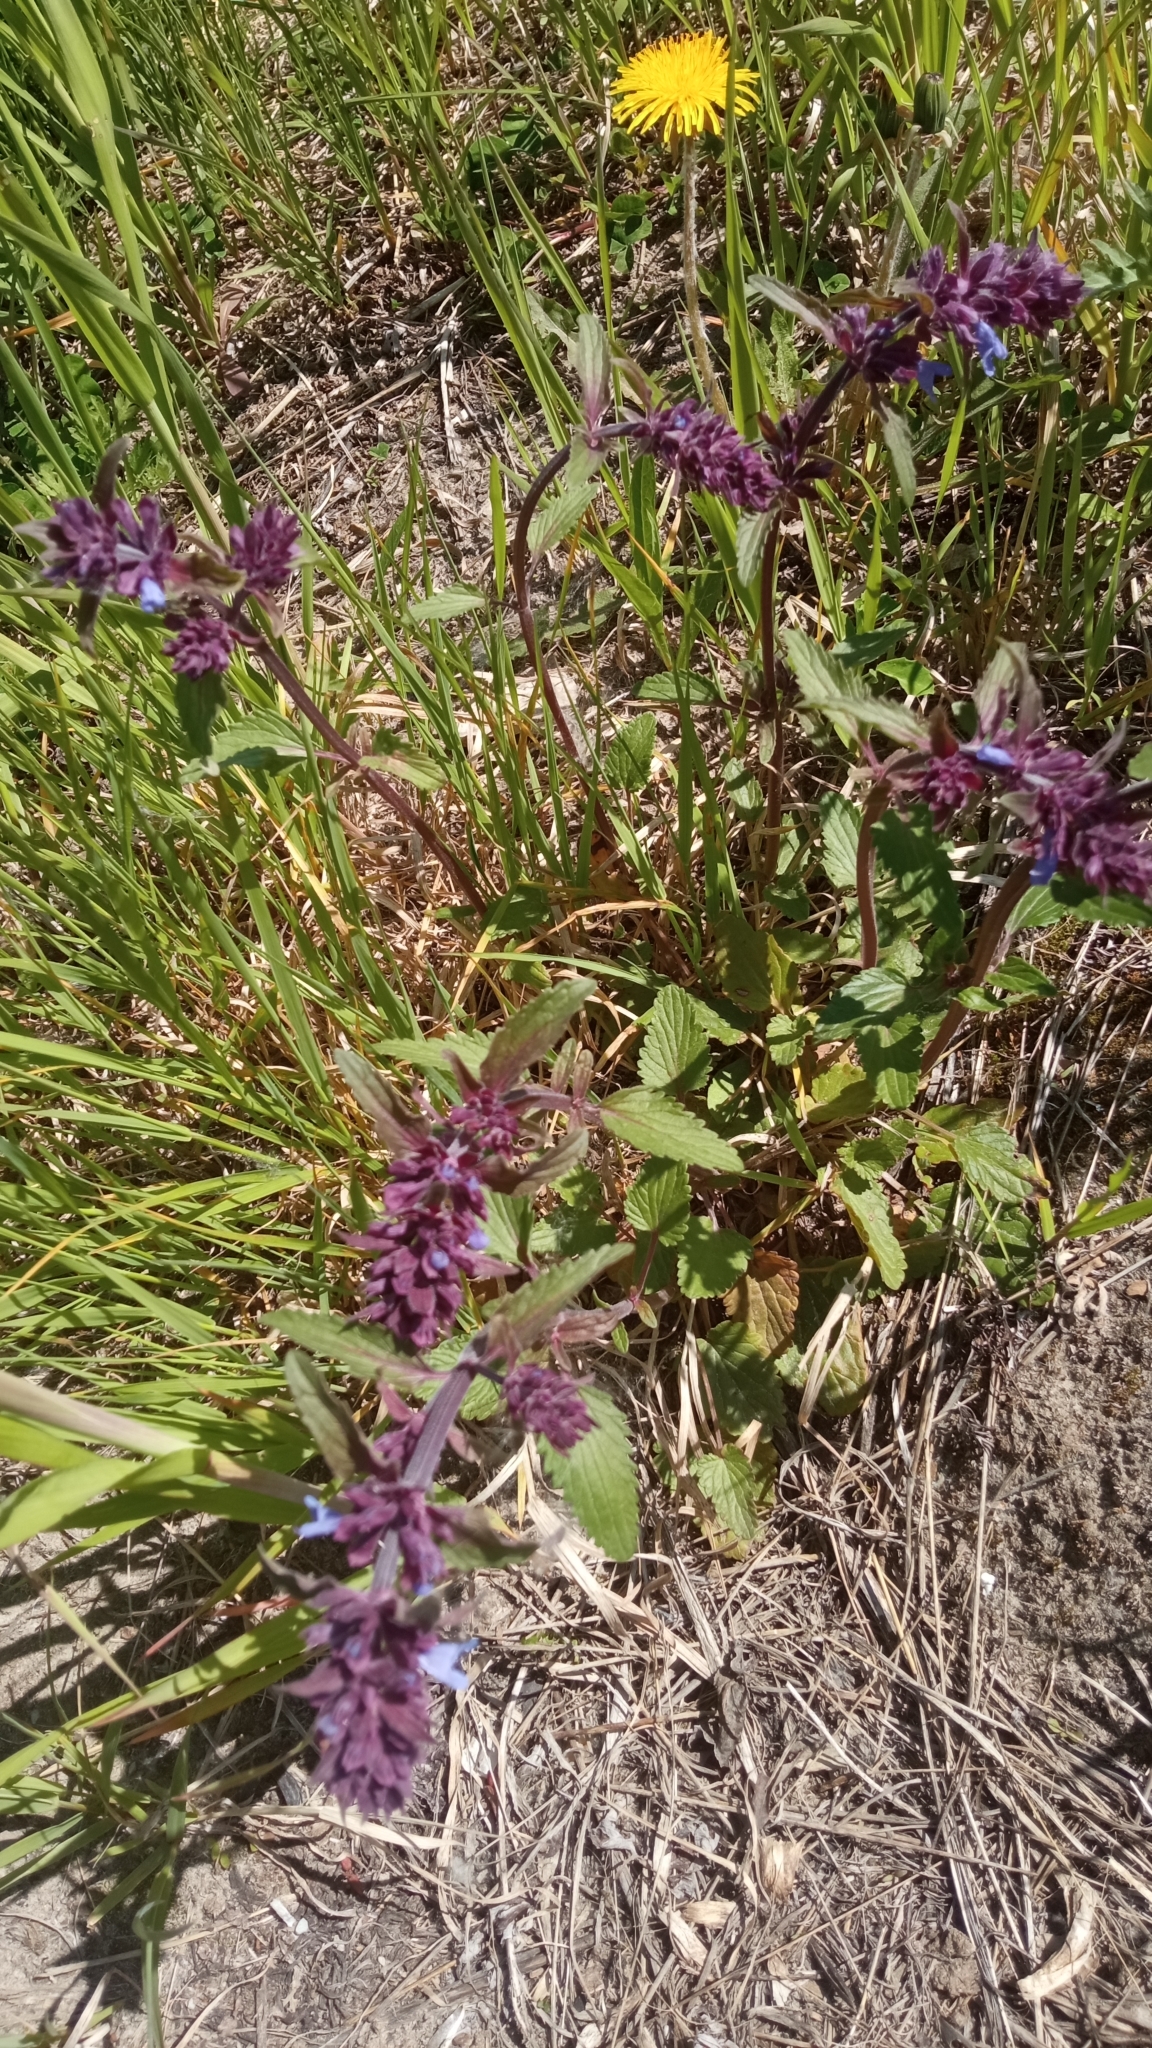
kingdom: Plantae
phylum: Tracheophyta
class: Magnoliopsida
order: Lamiales
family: Lamiaceae
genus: Dracocephalum
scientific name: Dracocephalum nutans
